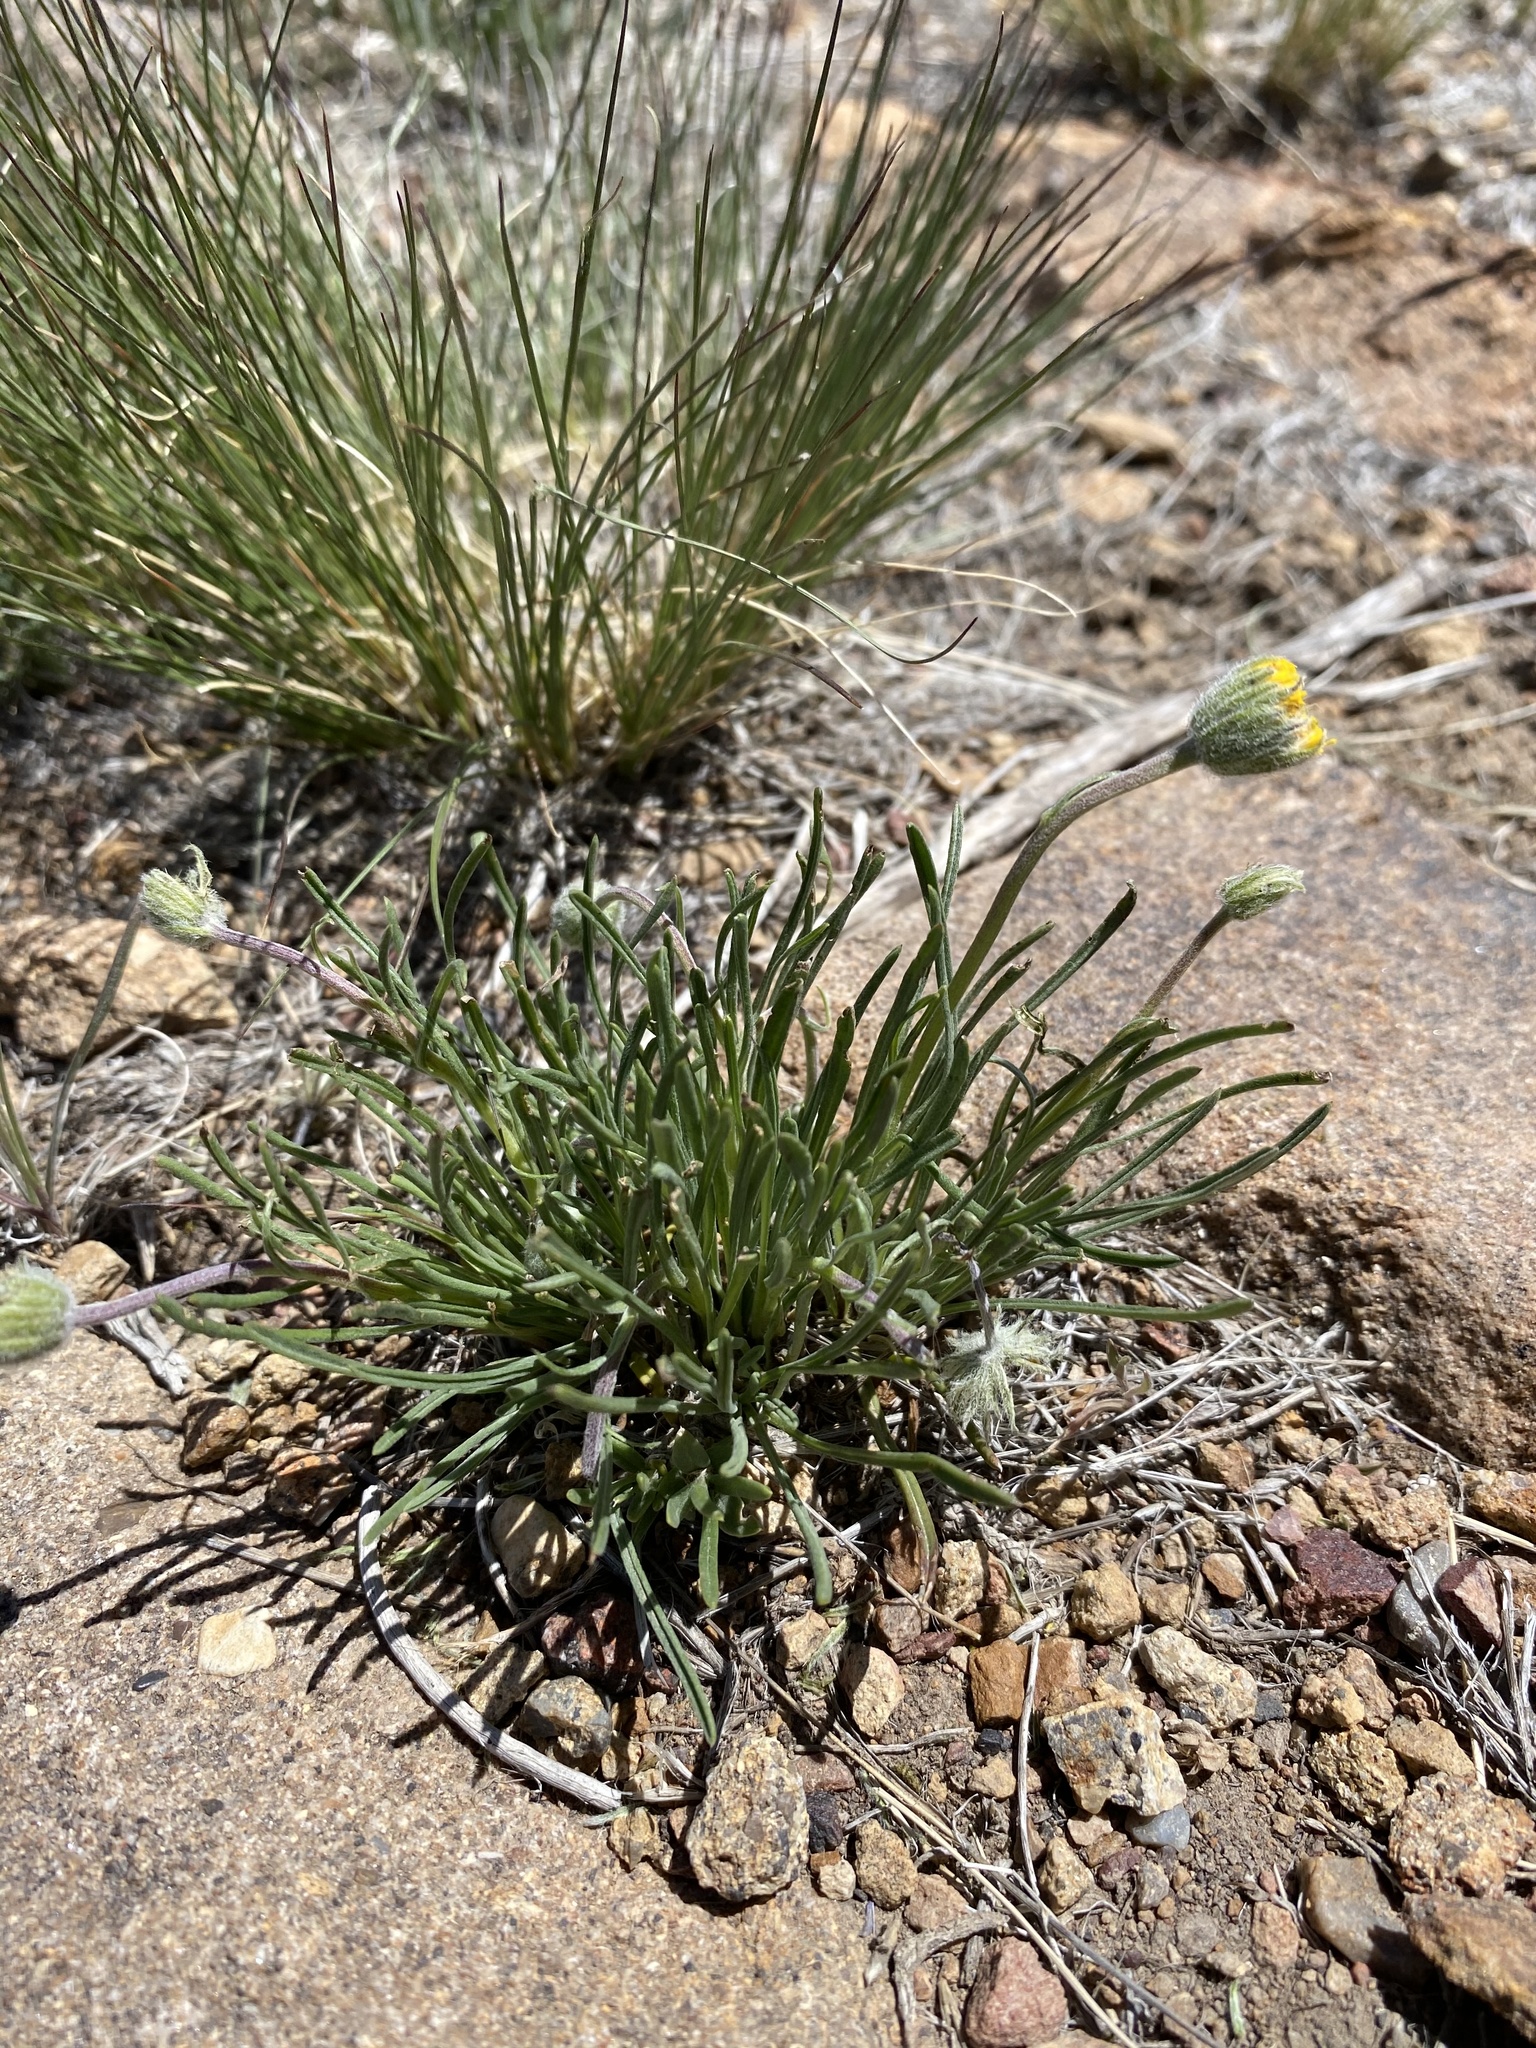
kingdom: Plantae
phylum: Tracheophyta
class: Magnoliopsida
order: Asterales
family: Asteraceae
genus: Erigeron
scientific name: Erigeron bloomeri
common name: Bloomer's fleabane
